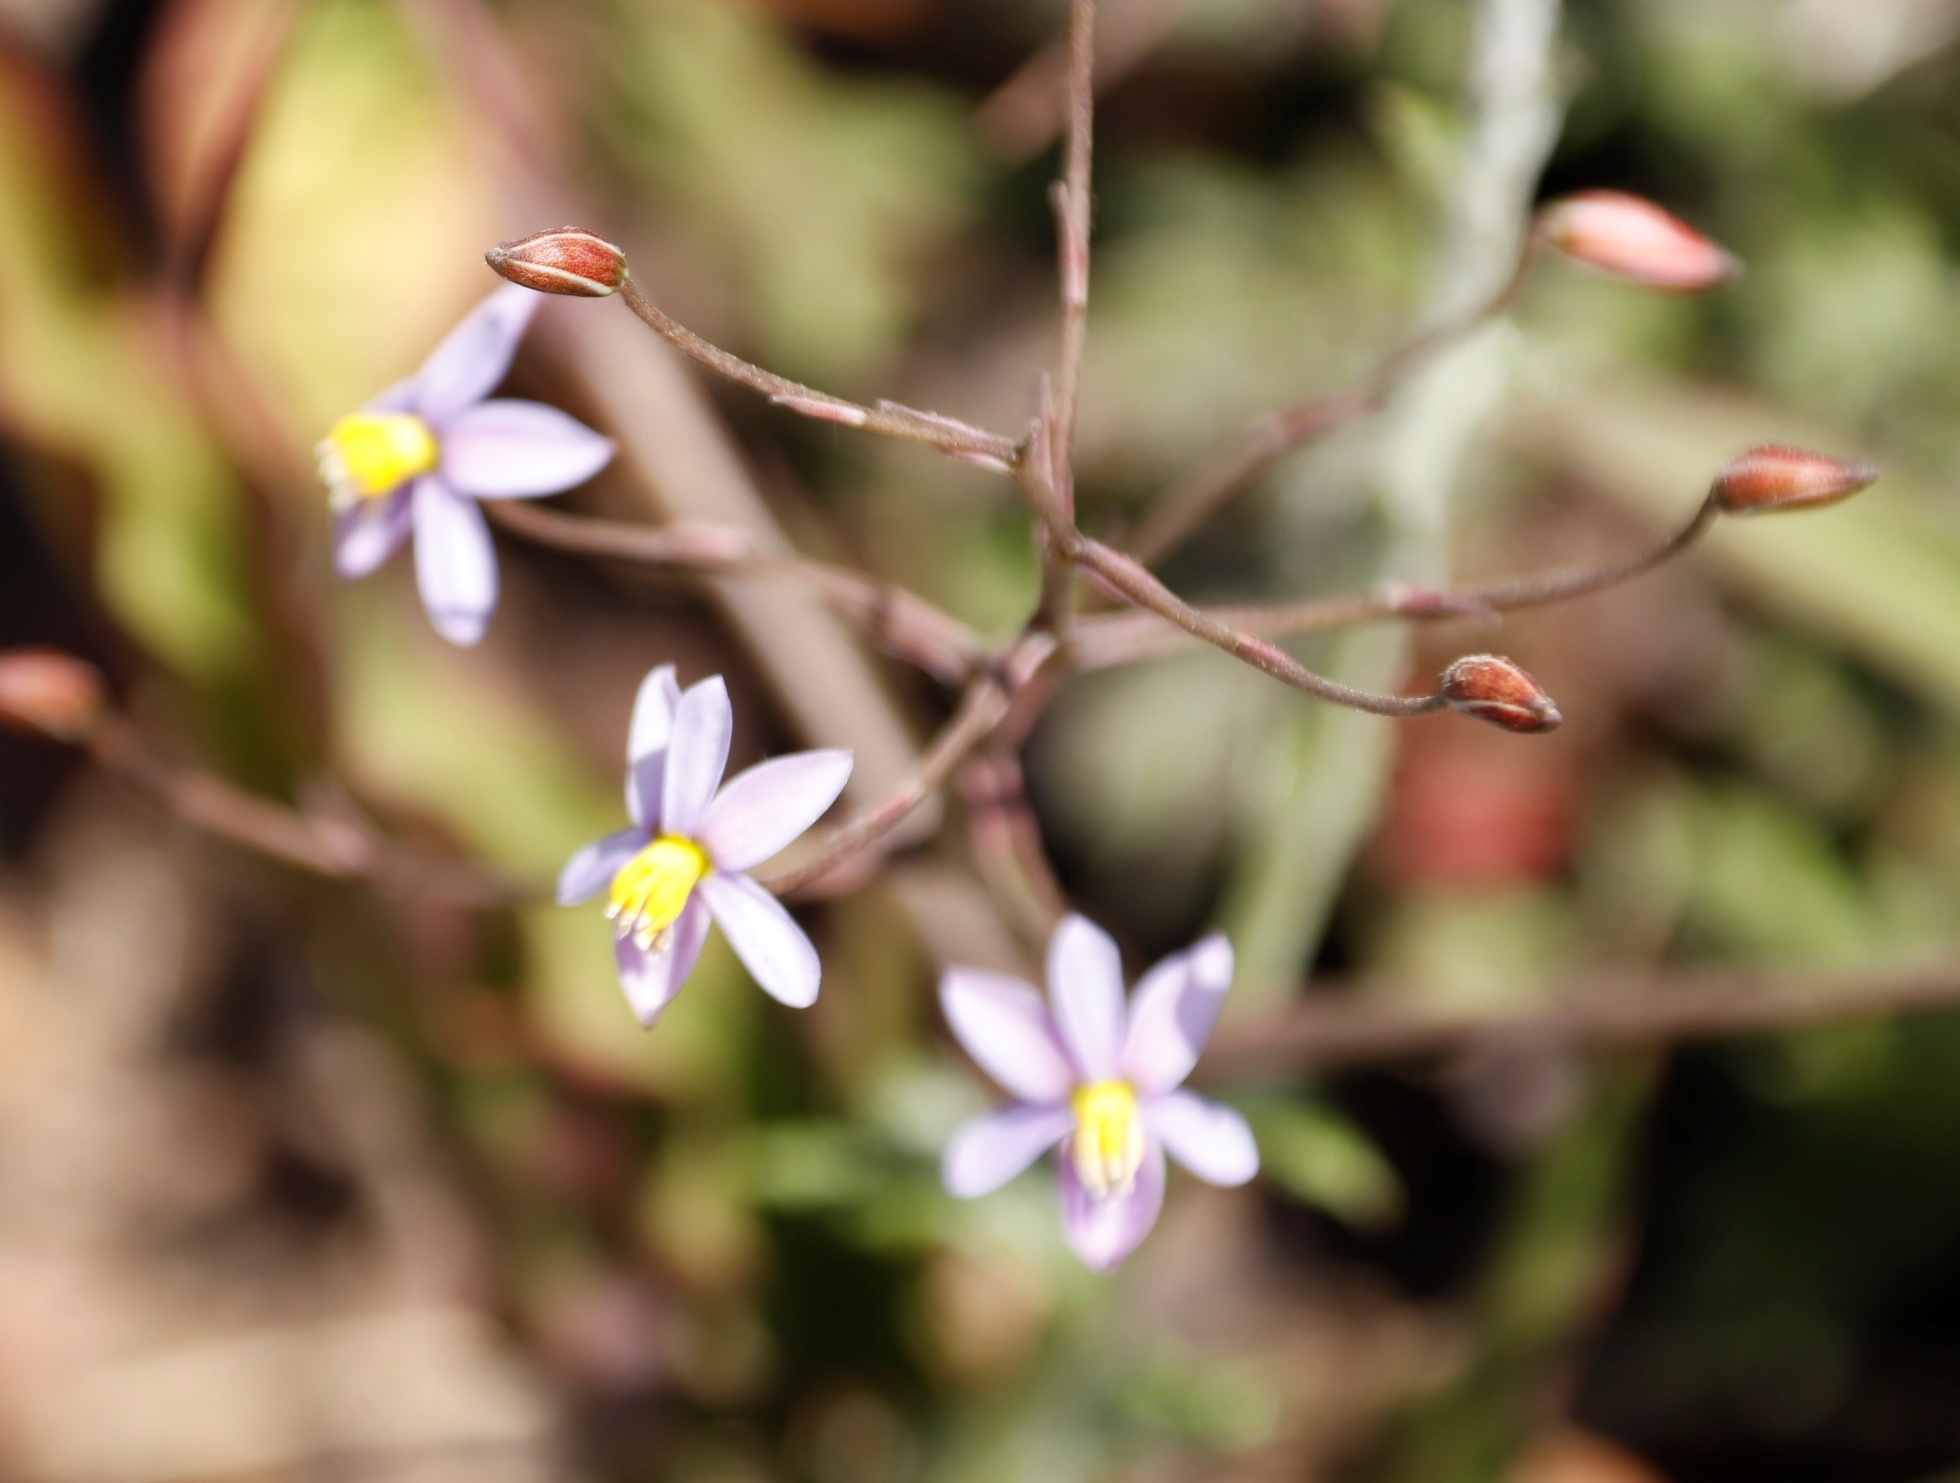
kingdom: Plantae
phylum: Tracheophyta
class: Liliopsida
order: Asparagales
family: Tecophilaeaceae
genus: Cyanella
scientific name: Cyanella hyacinthoides
